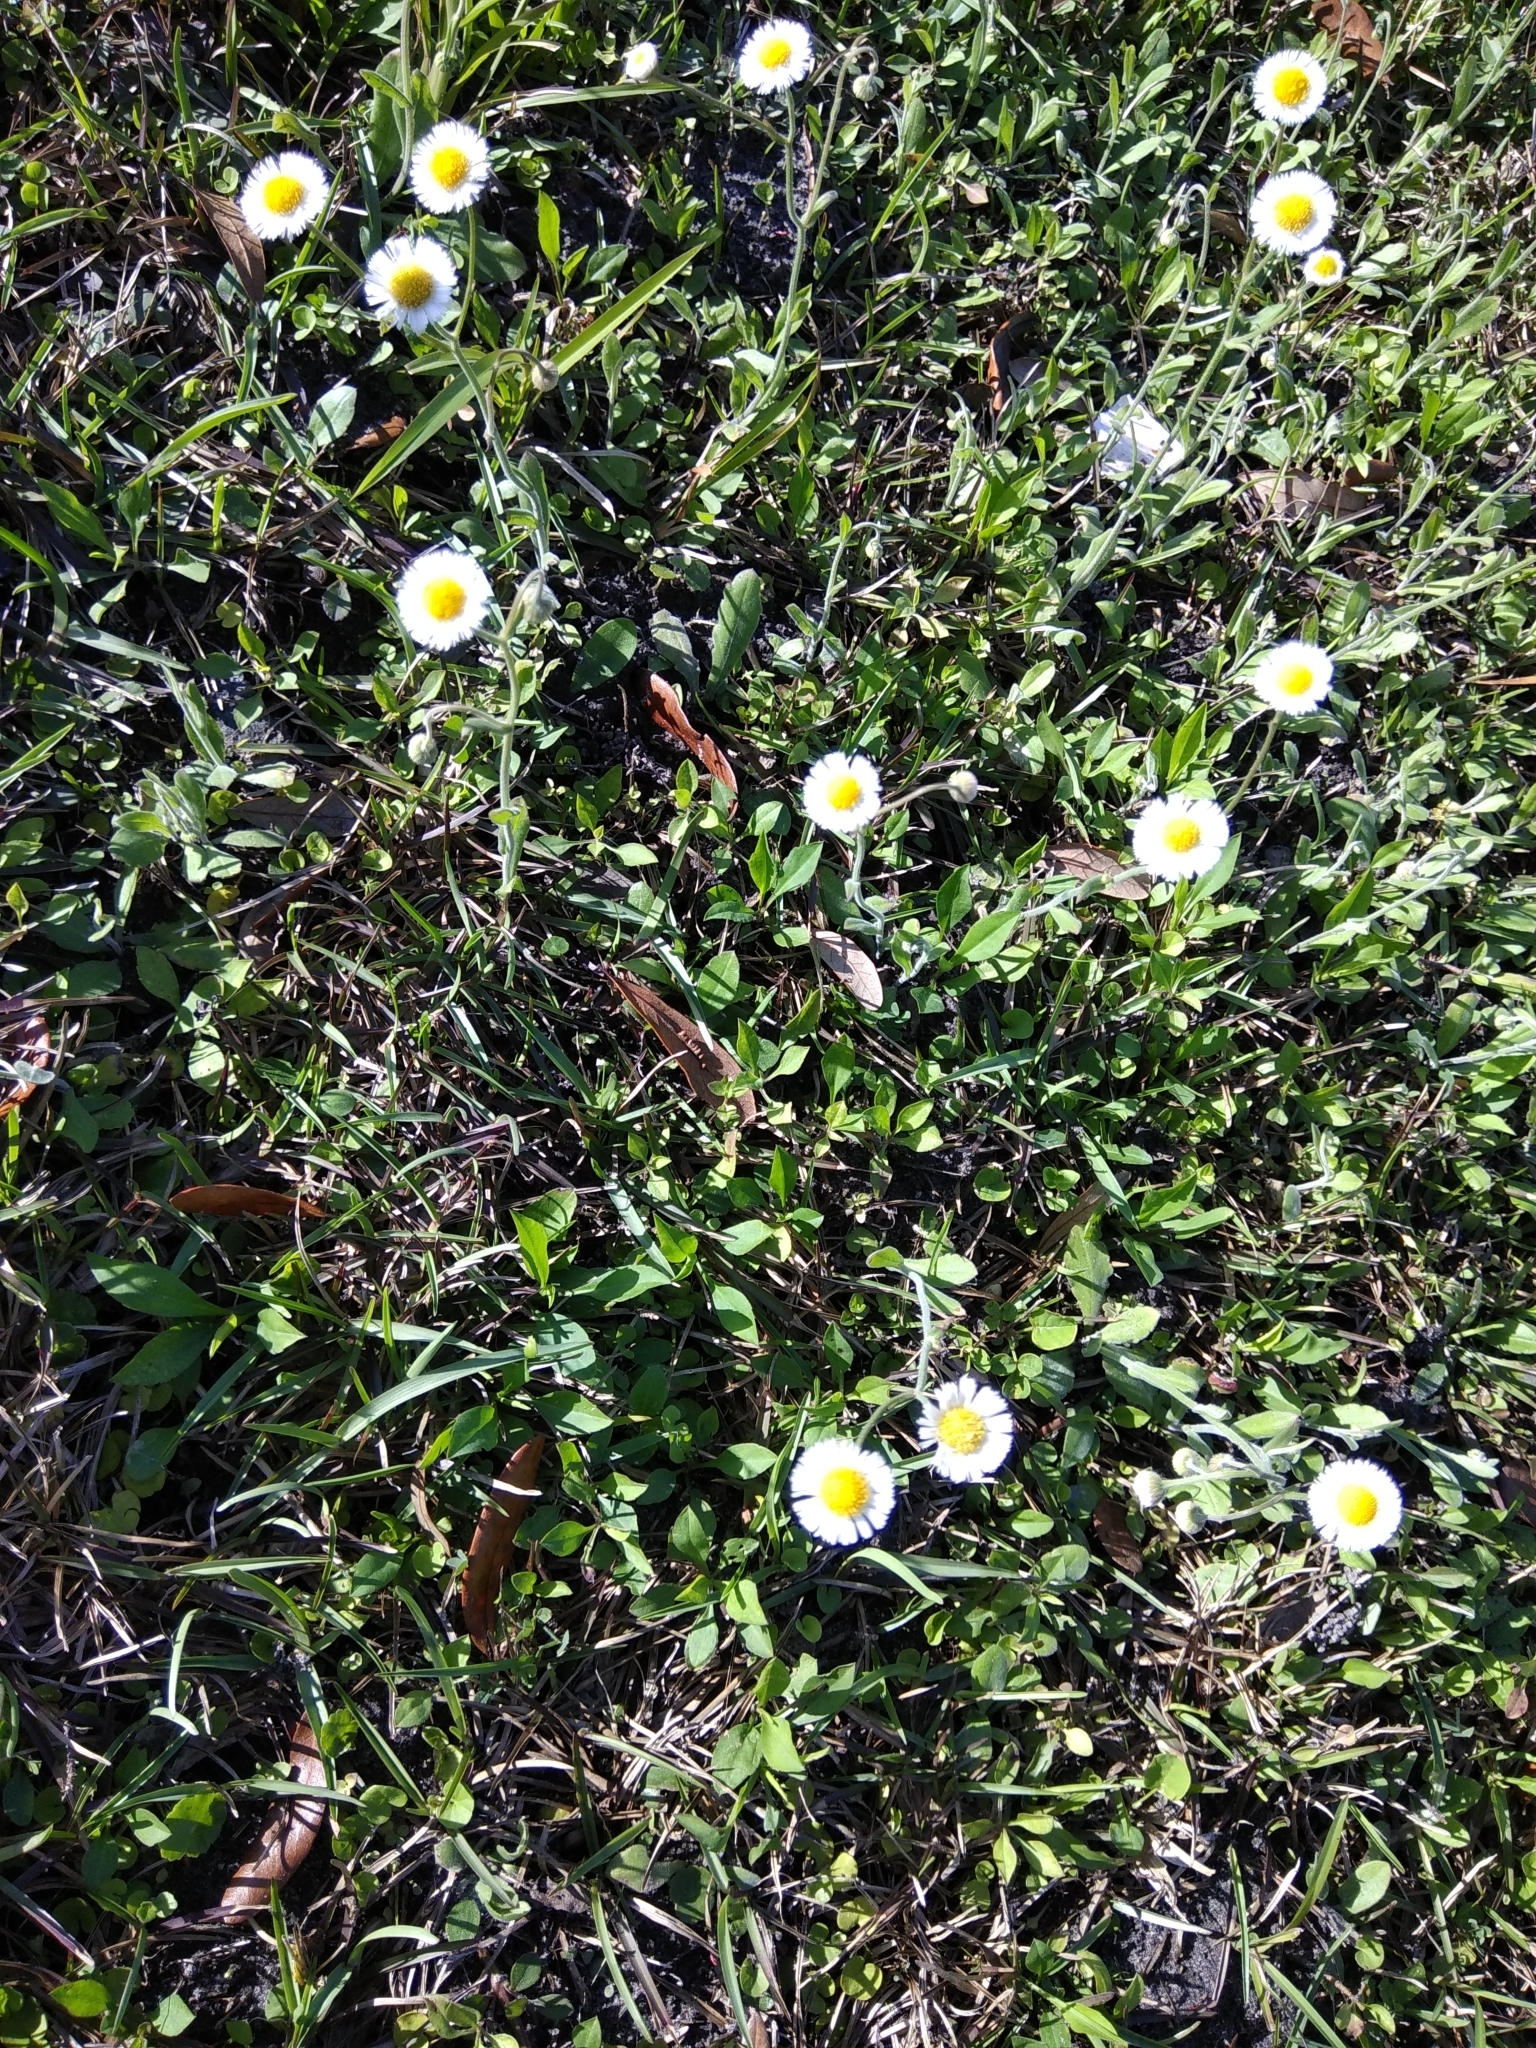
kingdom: Plantae
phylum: Tracheophyta
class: Magnoliopsida
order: Asterales
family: Asteraceae
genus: Erigeron
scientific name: Erigeron quercifolius
